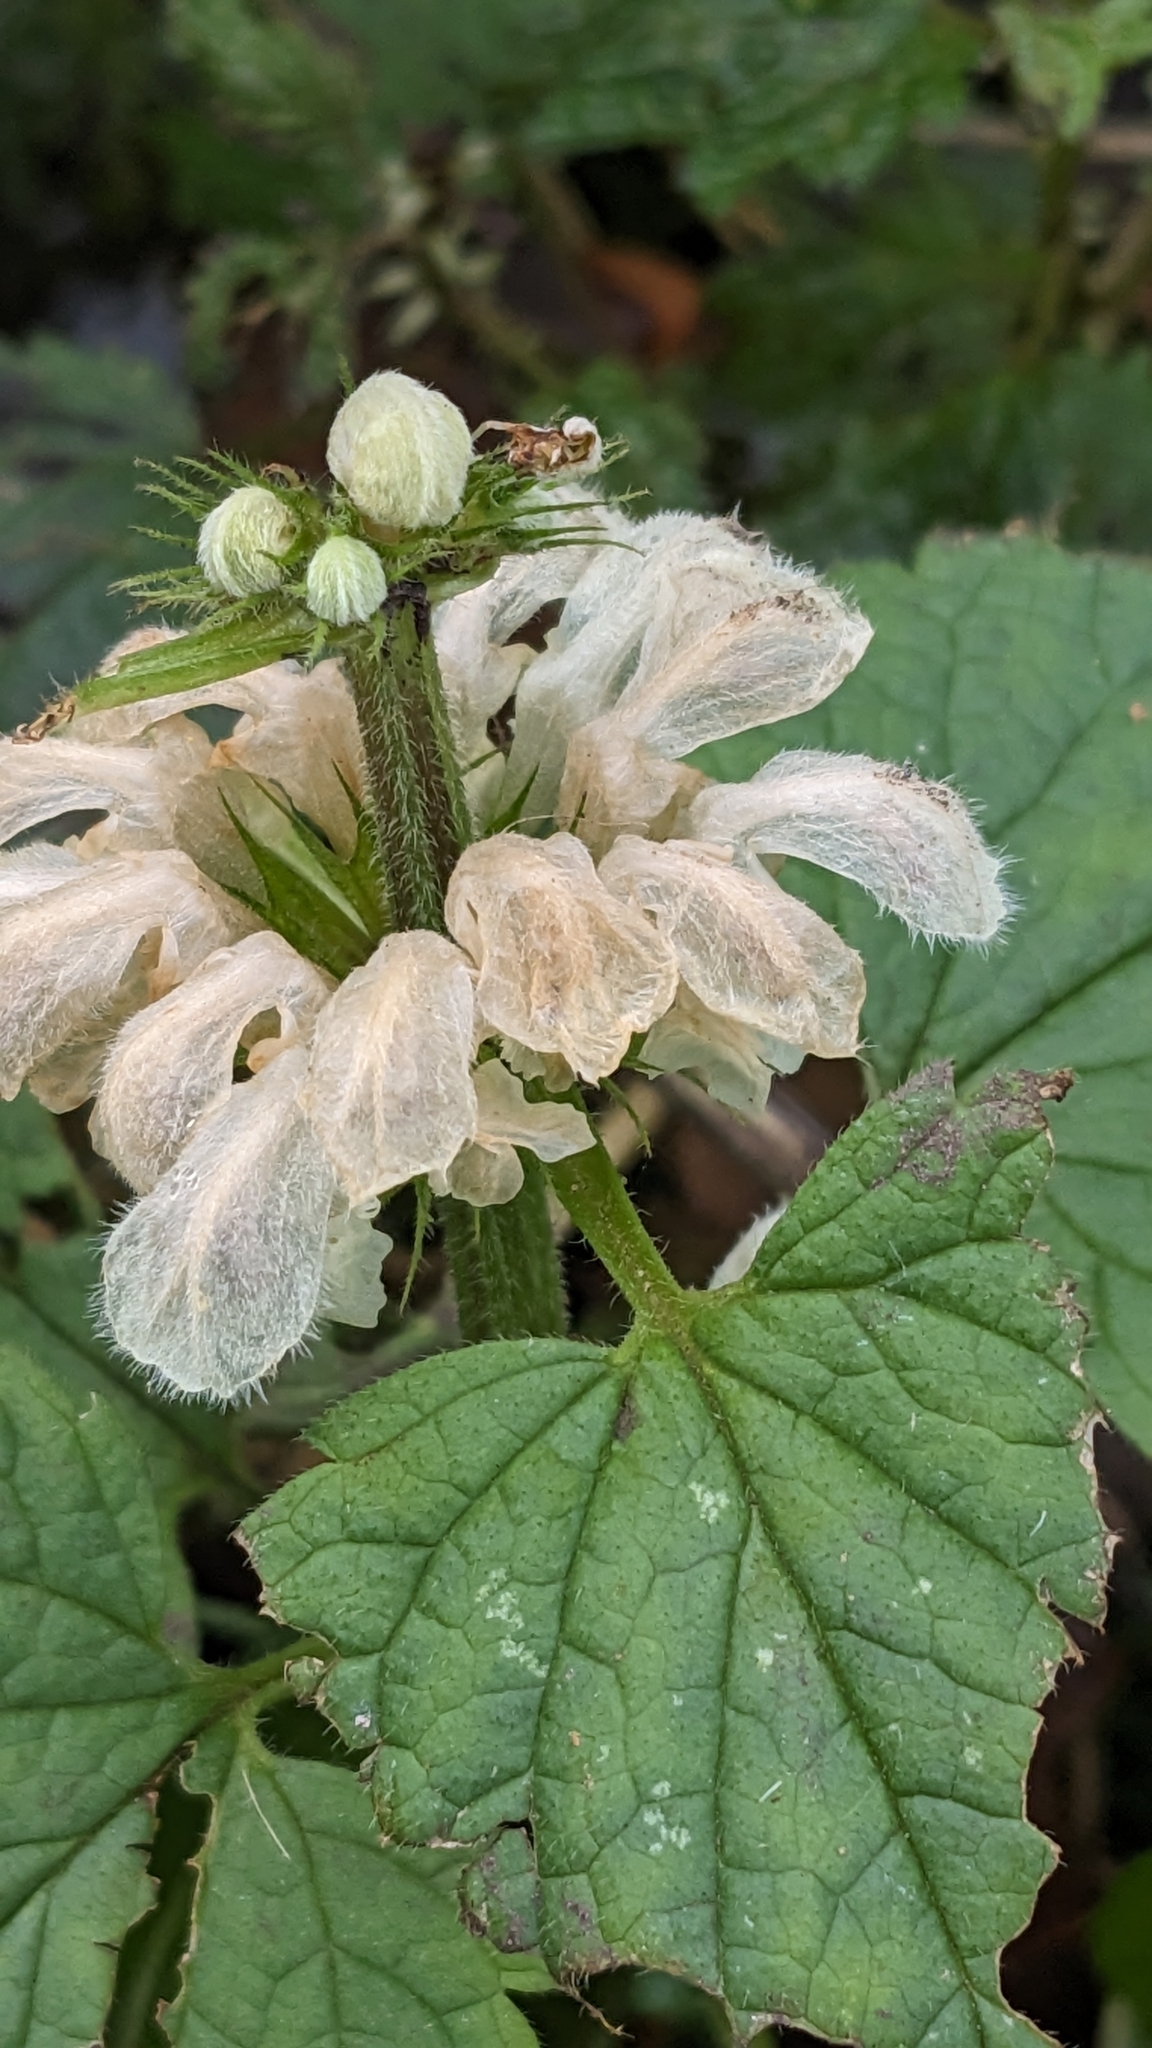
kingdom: Plantae
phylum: Tracheophyta
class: Magnoliopsida
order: Lamiales
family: Lamiaceae
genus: Lamium
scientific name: Lamium album
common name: White dead-nettle
